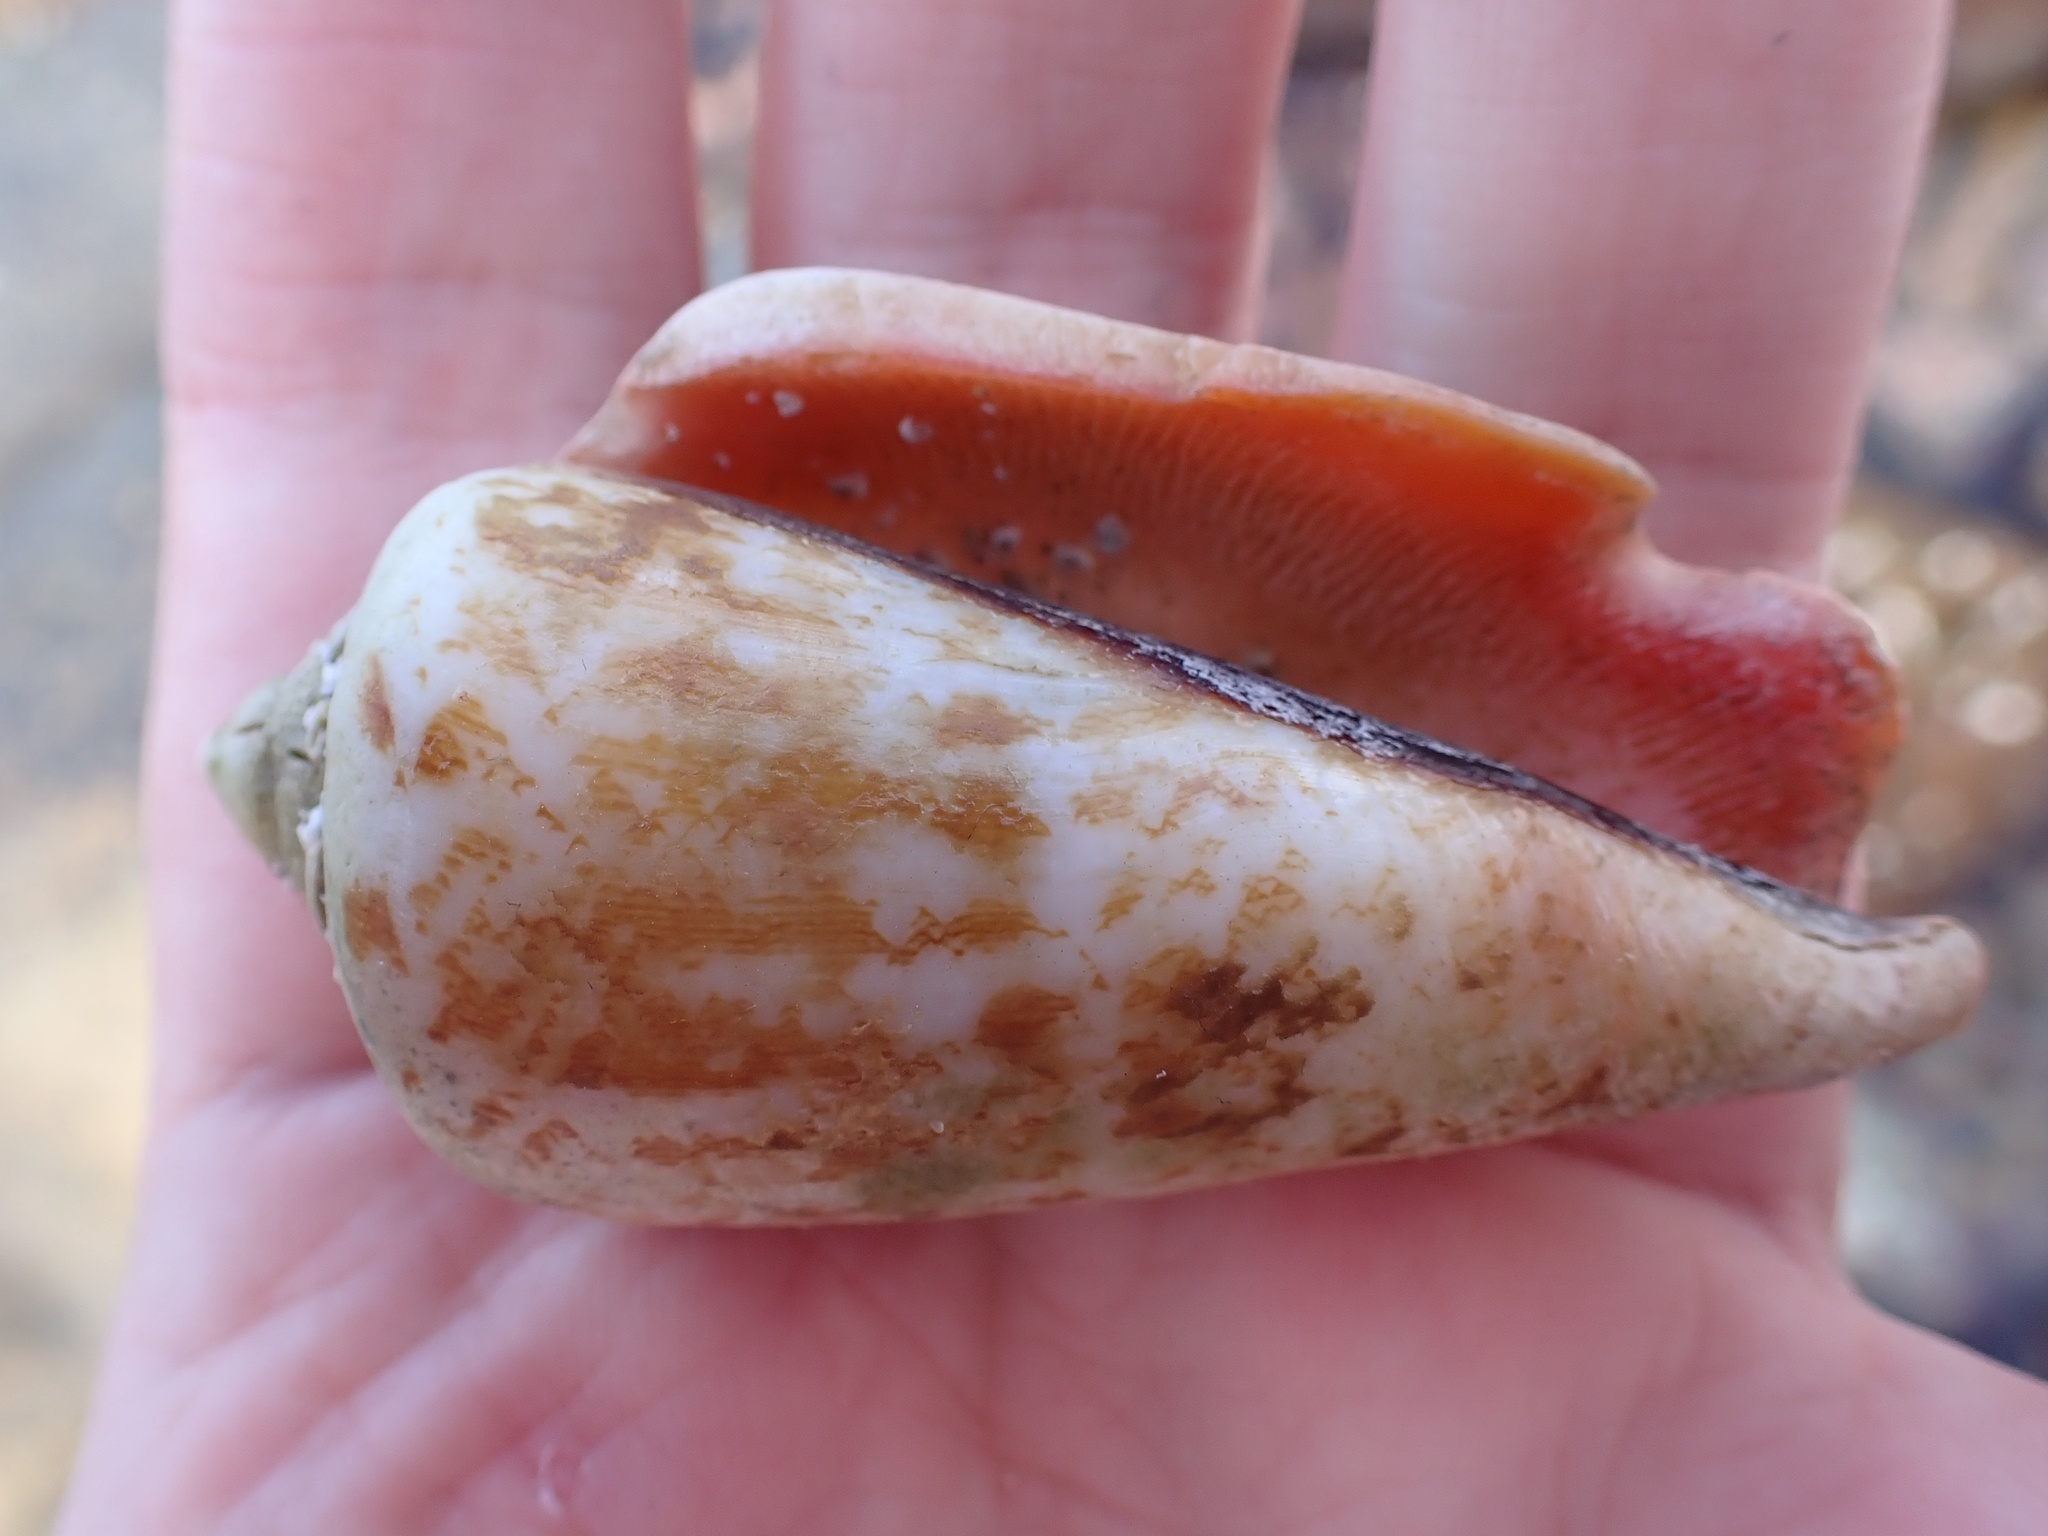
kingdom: Animalia
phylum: Mollusca
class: Gastropoda
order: Littorinimorpha
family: Strombidae
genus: Conomurex
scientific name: Conomurex luhuanus
